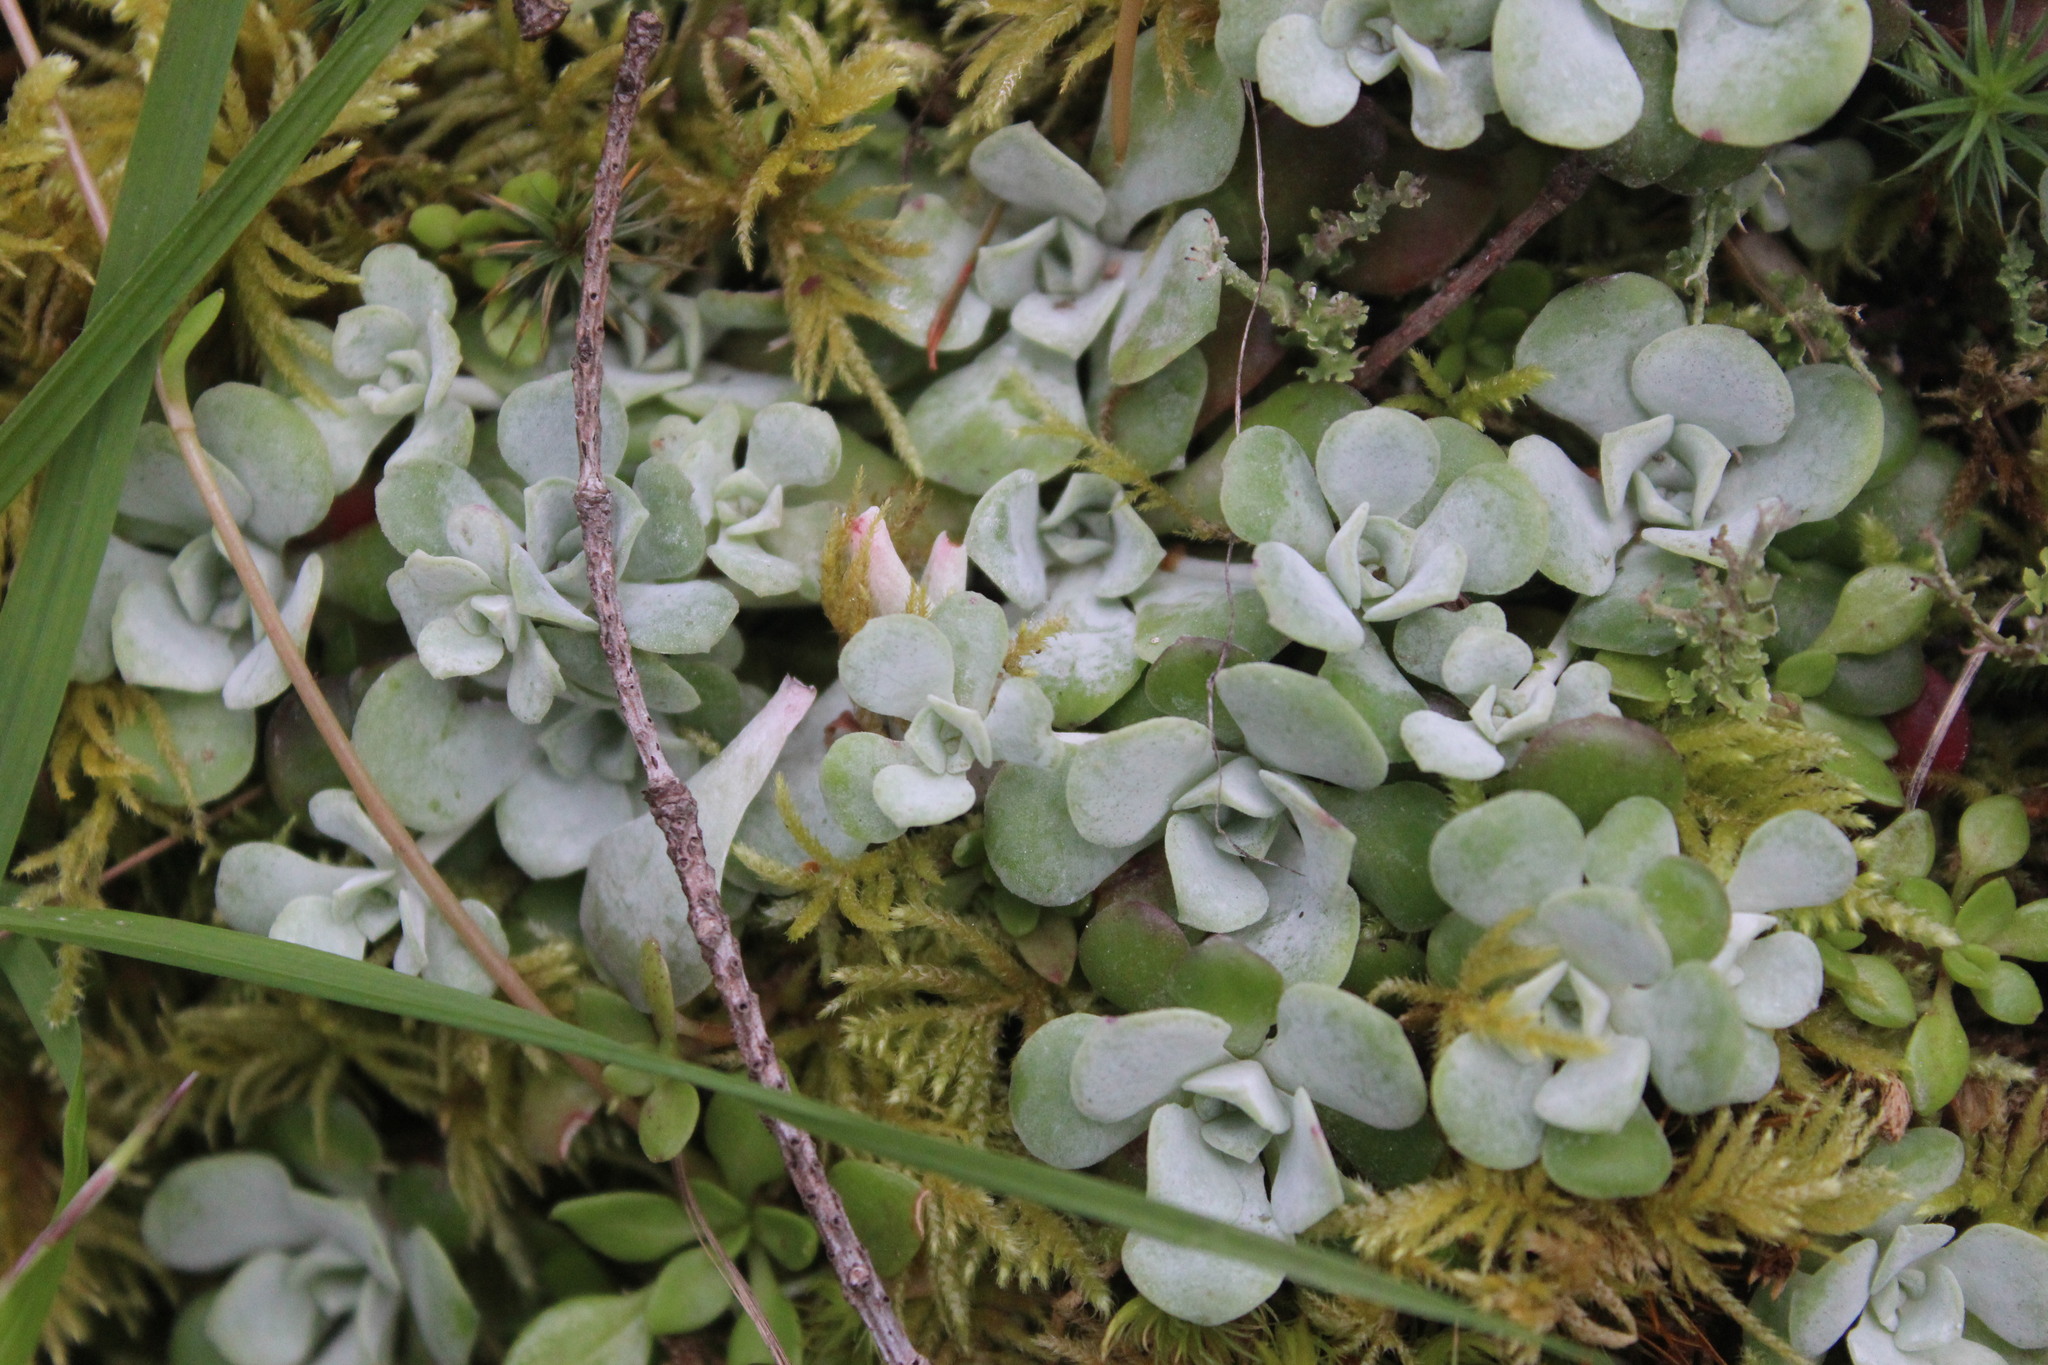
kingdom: Plantae
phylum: Tracheophyta
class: Magnoliopsida
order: Saxifragales
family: Crassulaceae
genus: Sedum
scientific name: Sedum spathulifolium
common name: Colorado stonecrop
